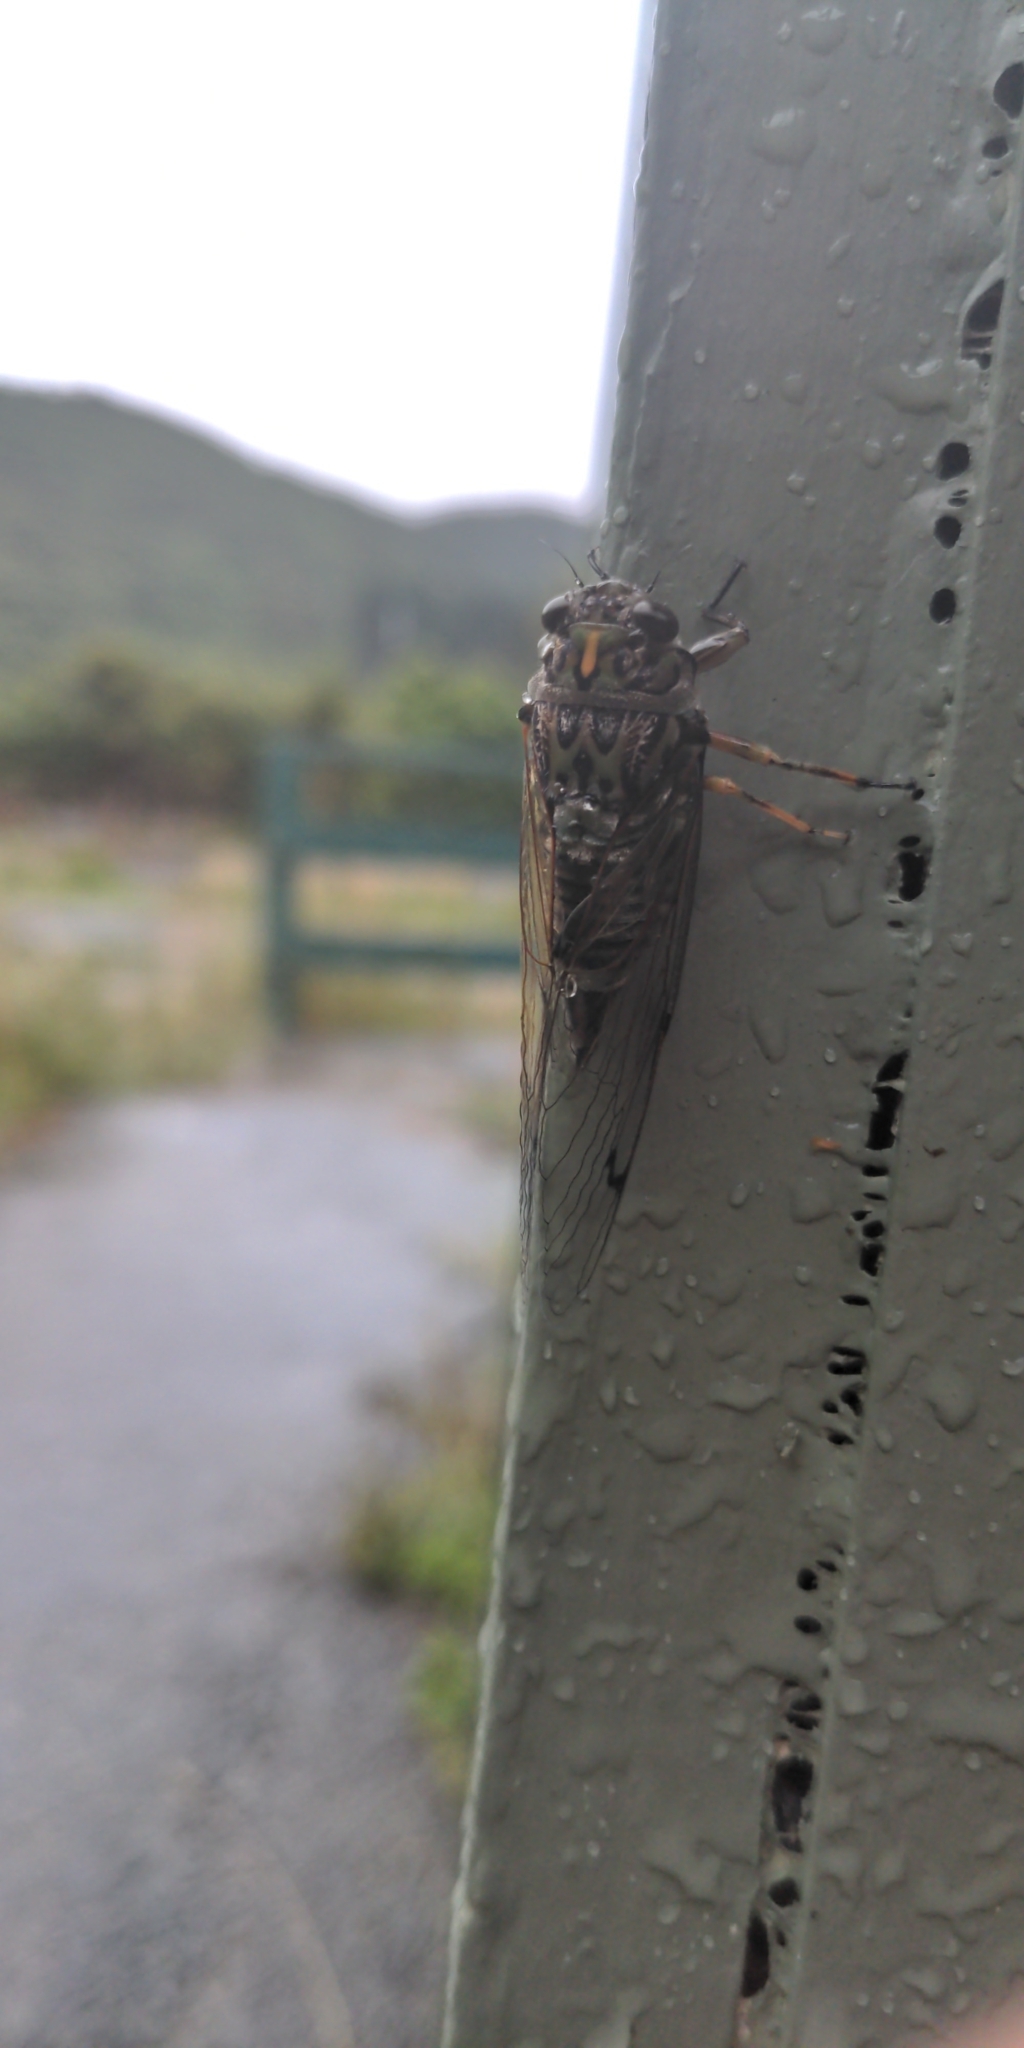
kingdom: Animalia
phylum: Arthropoda
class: Insecta
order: Hemiptera
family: Cicadidae
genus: Amphipsalta
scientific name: Amphipsalta cingulata
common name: Clapping cicada
